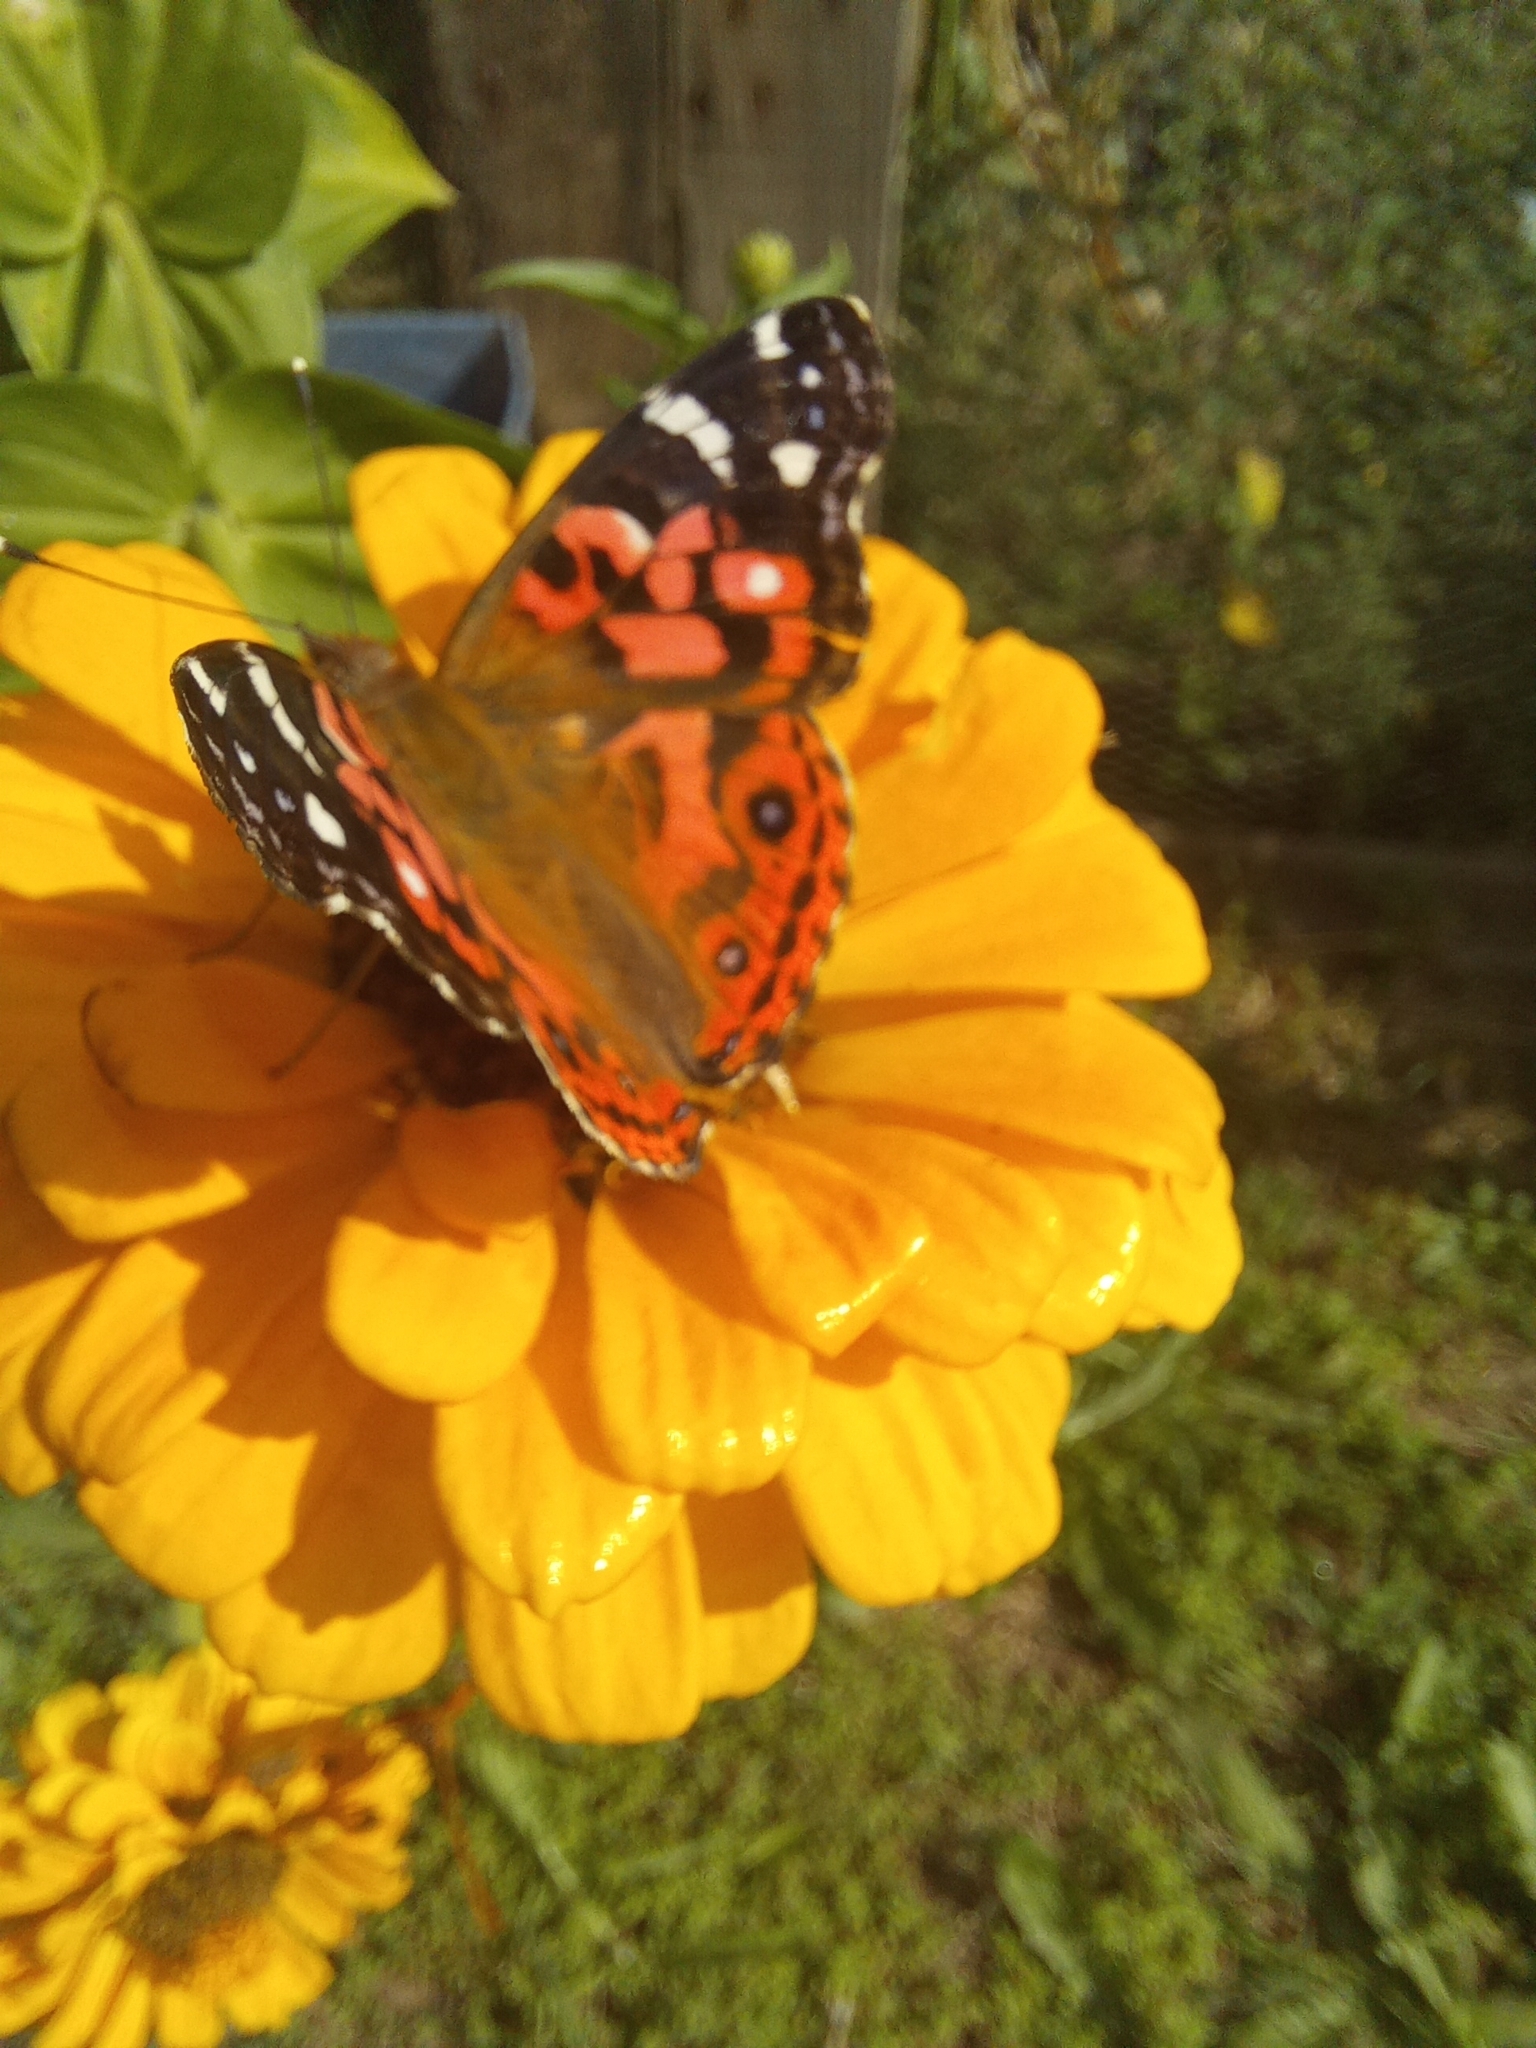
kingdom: Animalia
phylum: Arthropoda
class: Insecta
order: Lepidoptera
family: Nymphalidae
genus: Vanessa
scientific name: Vanessa braziliensis
